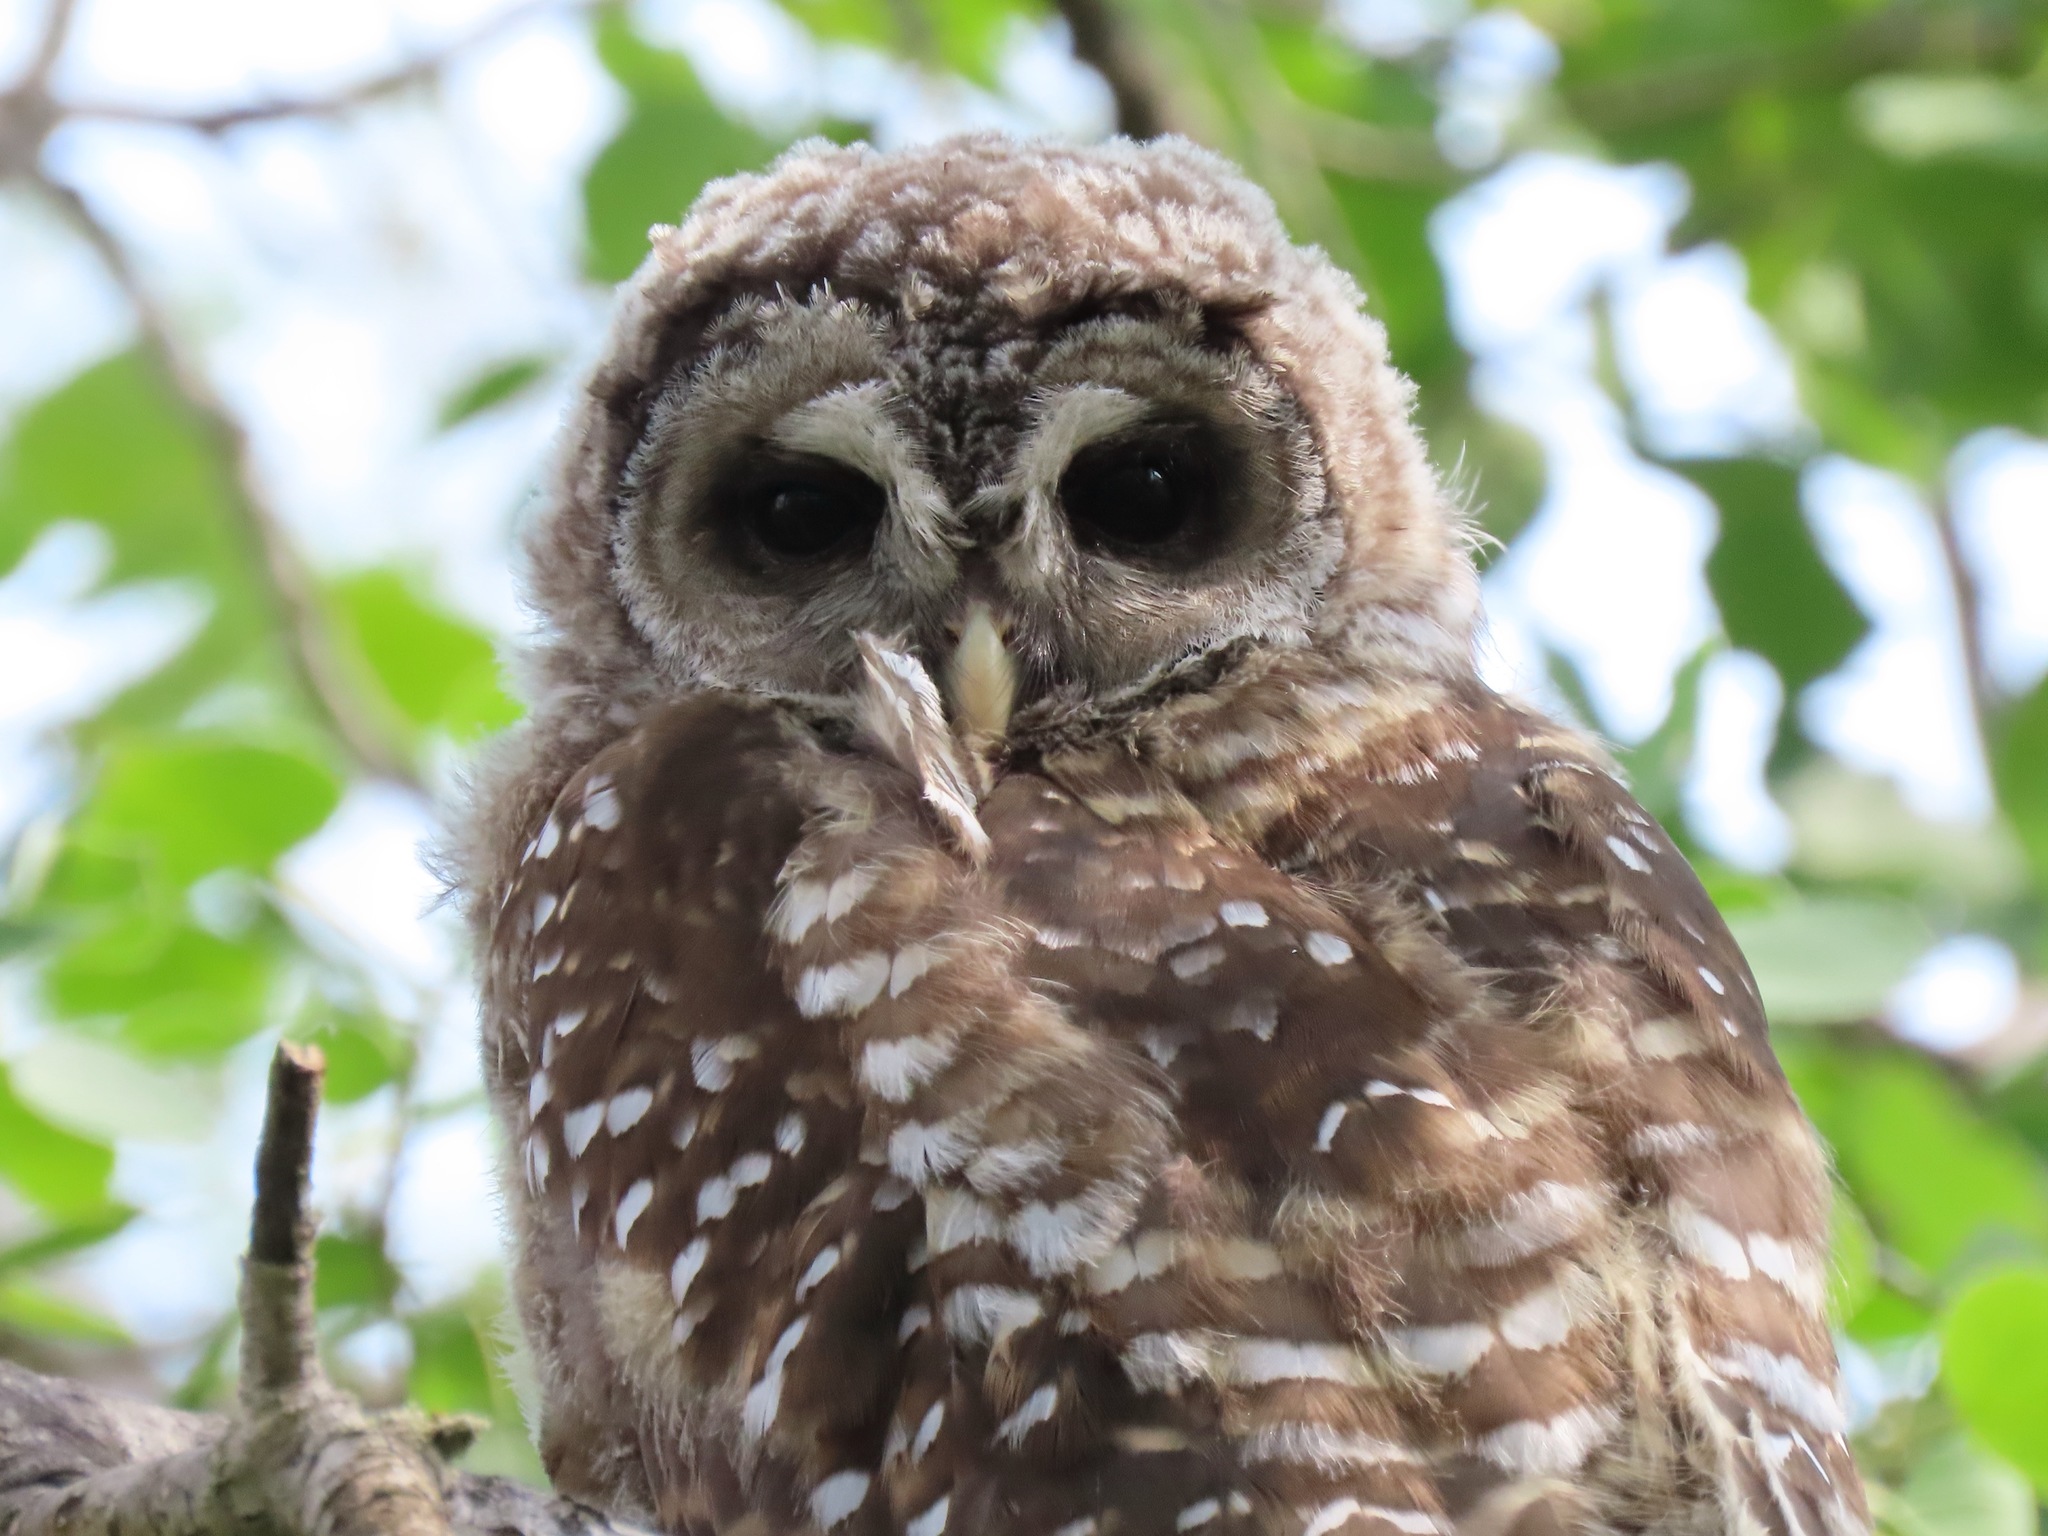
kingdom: Animalia
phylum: Chordata
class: Aves
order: Strigiformes
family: Strigidae
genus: Strix
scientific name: Strix varia
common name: Barred owl
